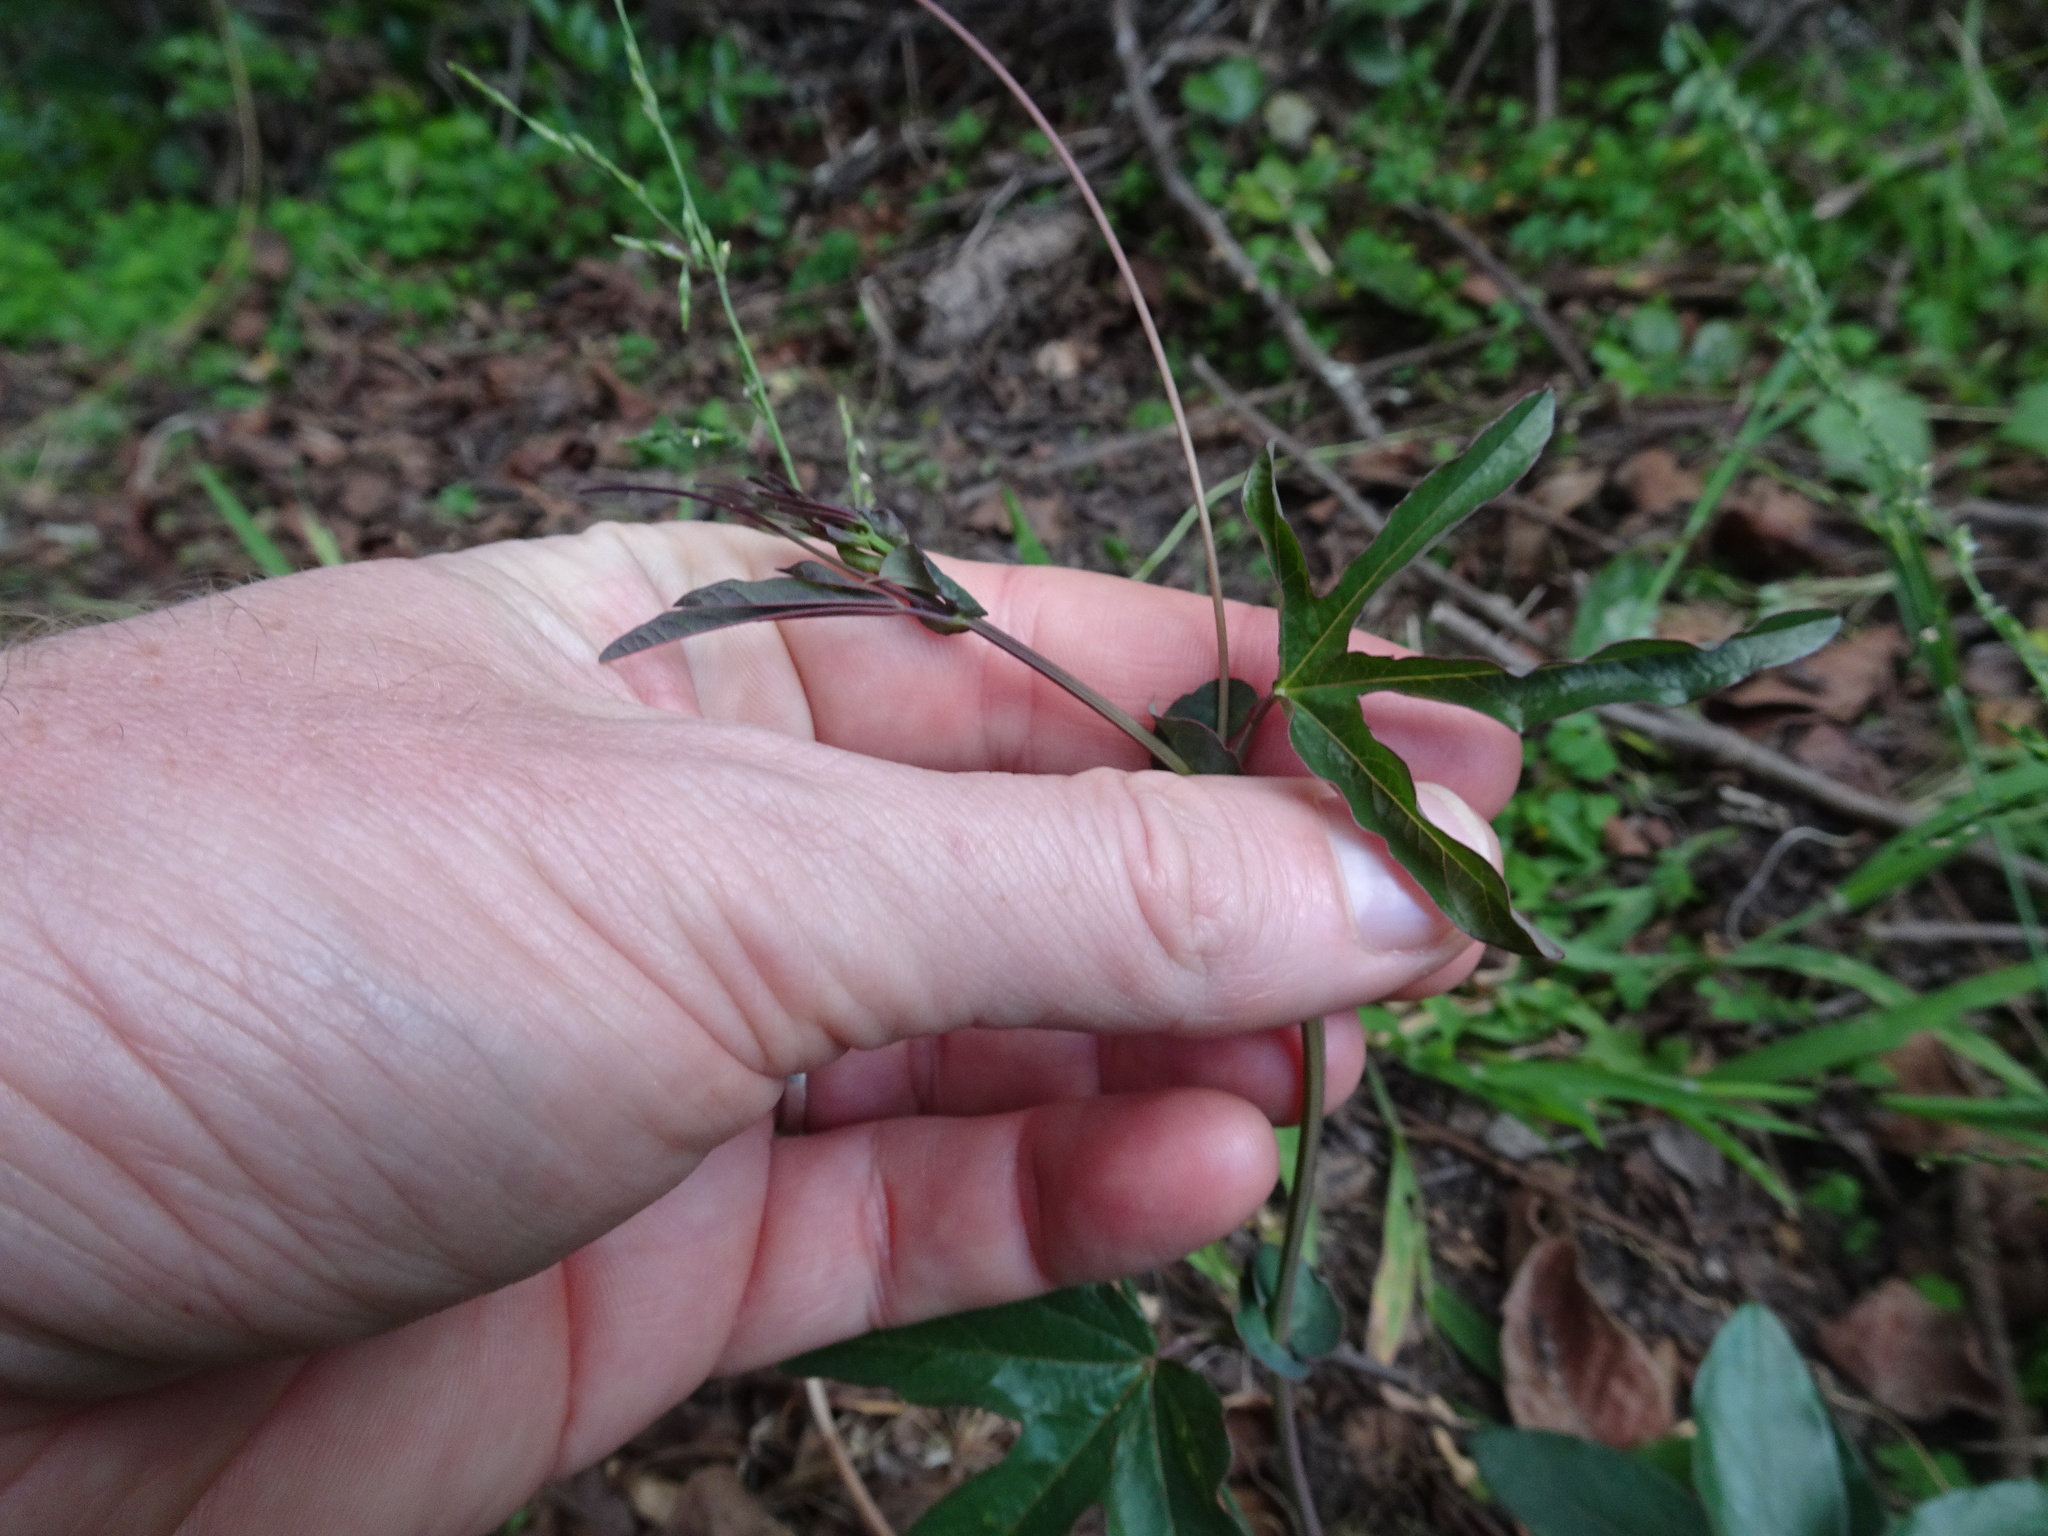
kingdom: Plantae
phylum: Tracheophyta
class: Magnoliopsida
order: Malpighiales
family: Passifloraceae
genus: Passiflora
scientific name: Passiflora caerulea
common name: Blue passionflower
